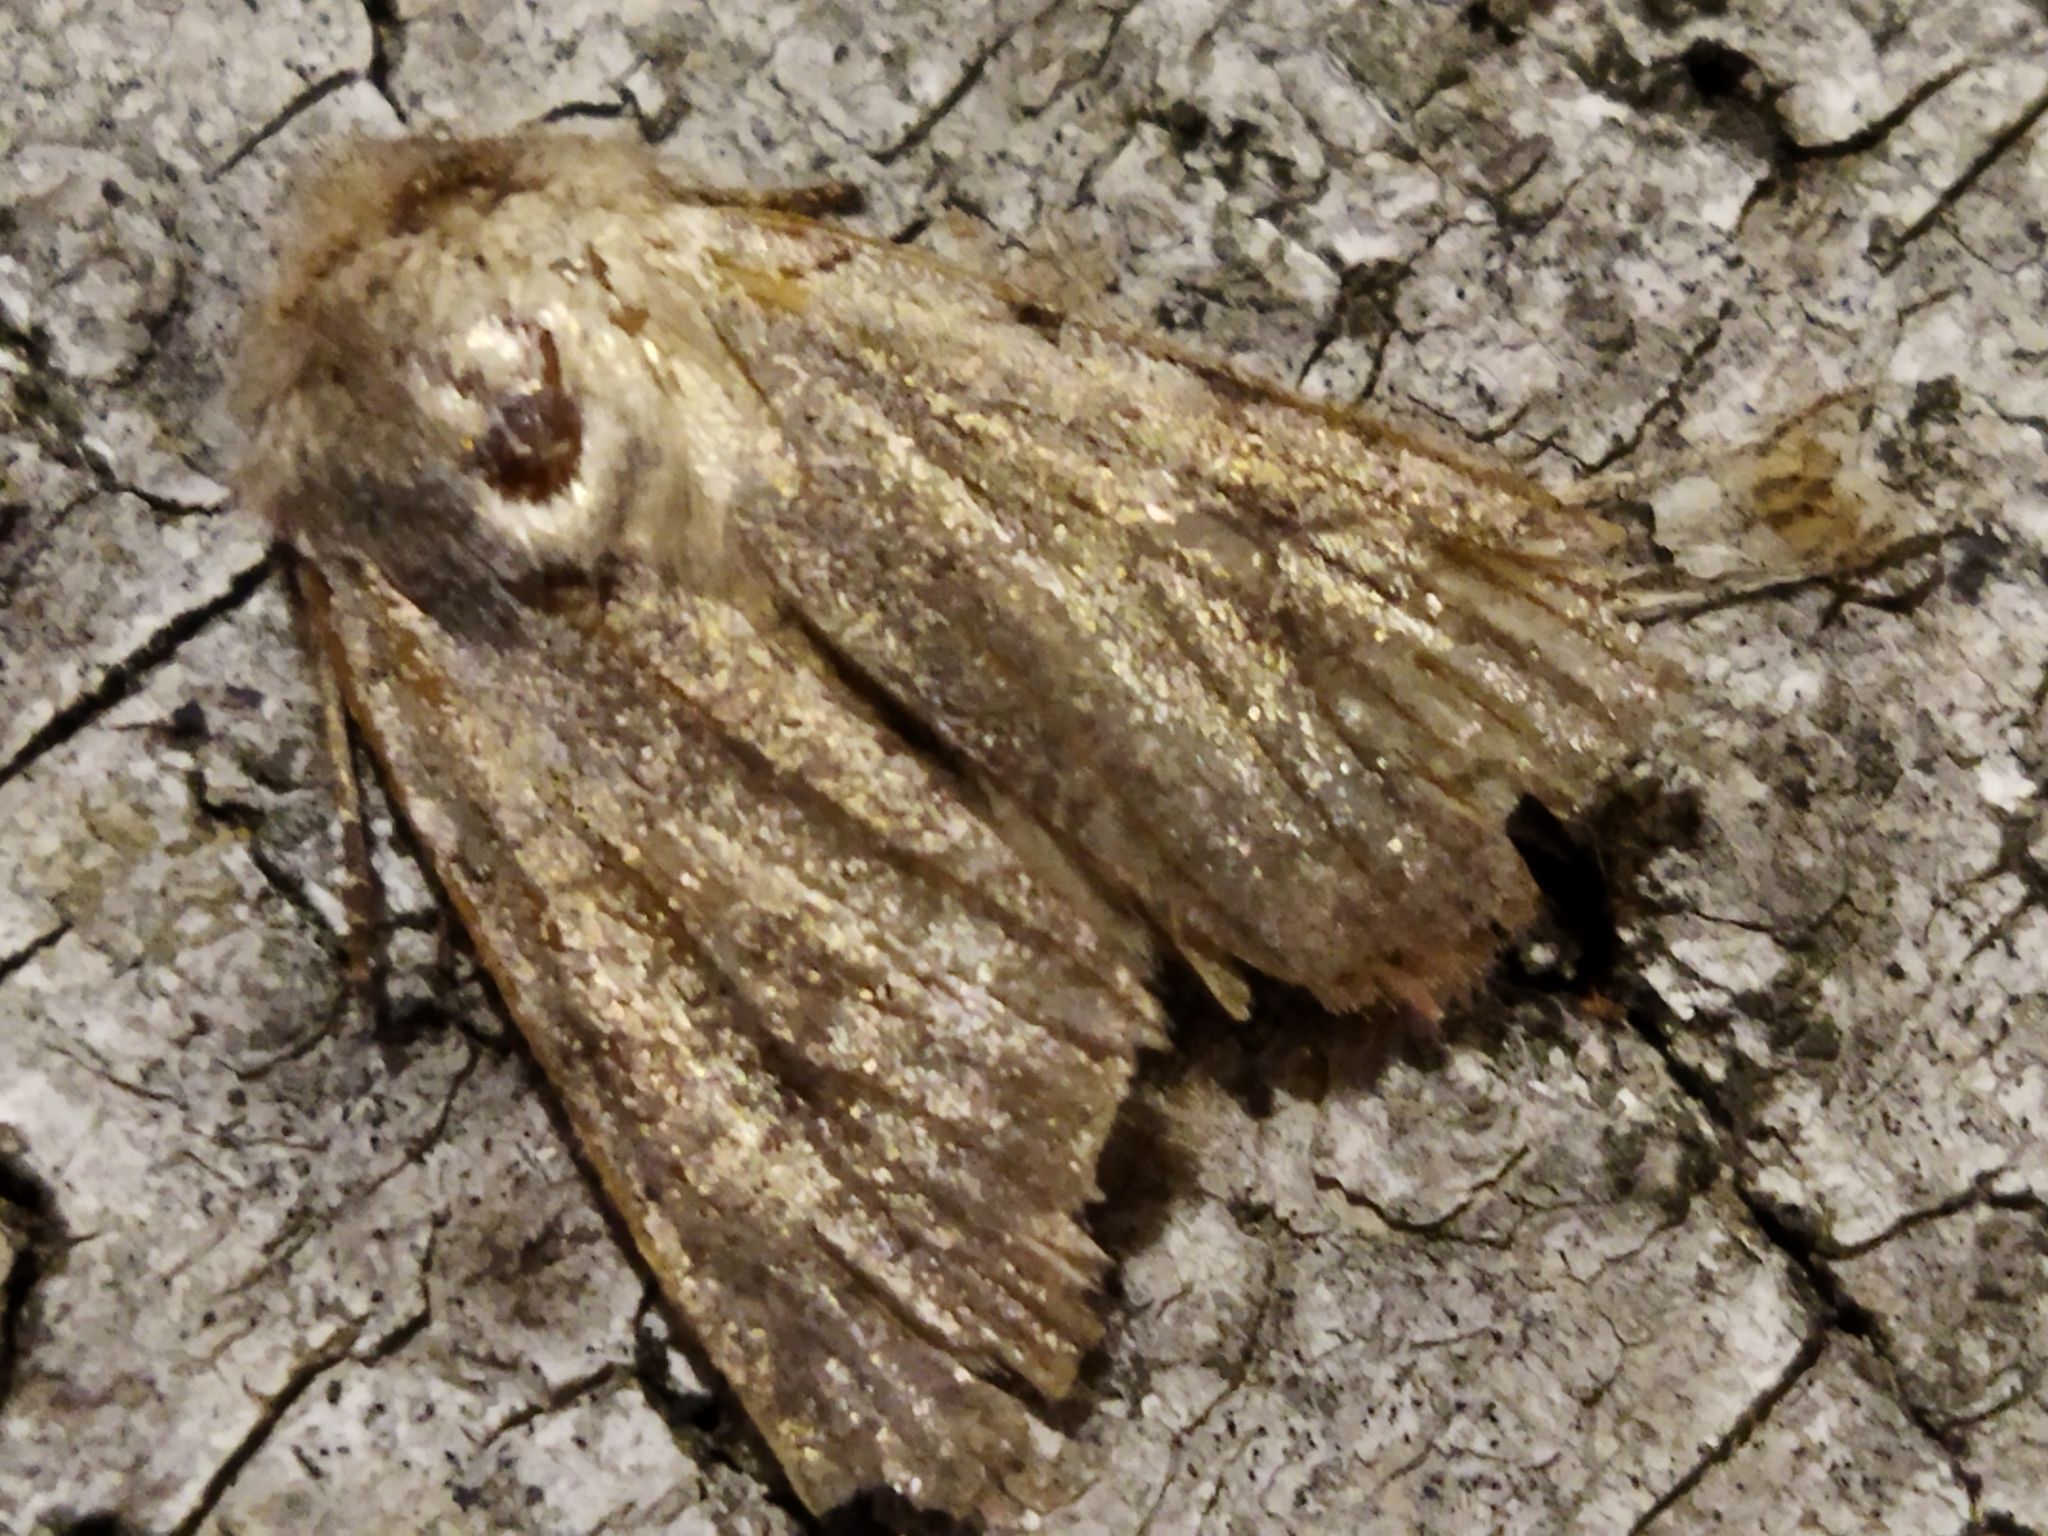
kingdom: Animalia
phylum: Arthropoda
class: Insecta
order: Lepidoptera
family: Noctuidae
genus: Orthosia
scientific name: Orthosia
